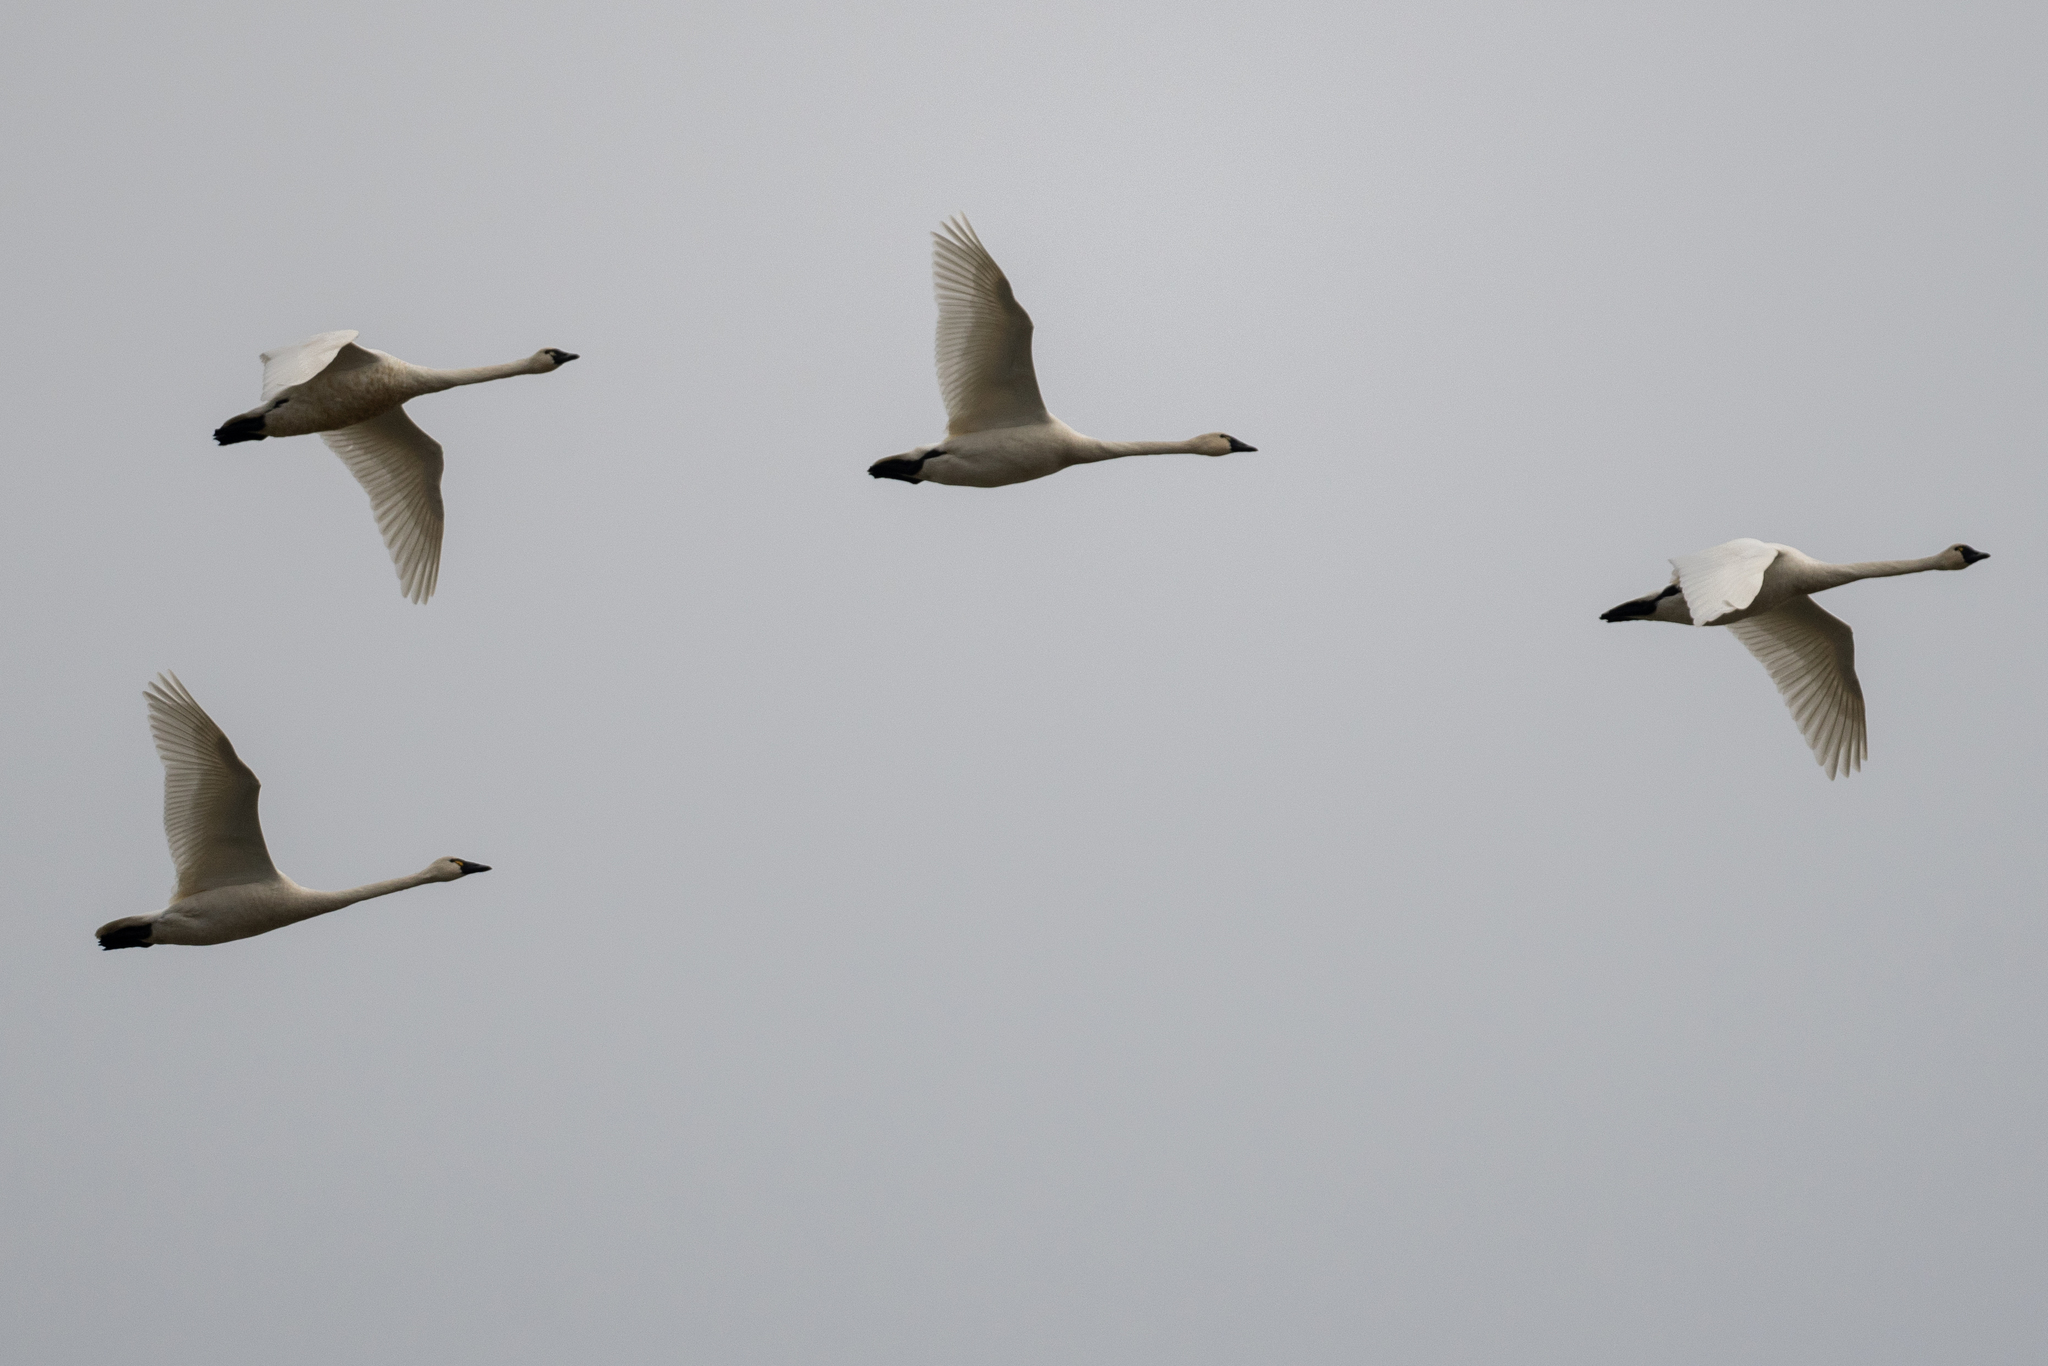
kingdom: Animalia
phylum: Chordata
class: Aves
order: Anseriformes
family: Anatidae
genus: Cygnus
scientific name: Cygnus columbianus
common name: Tundra swan
